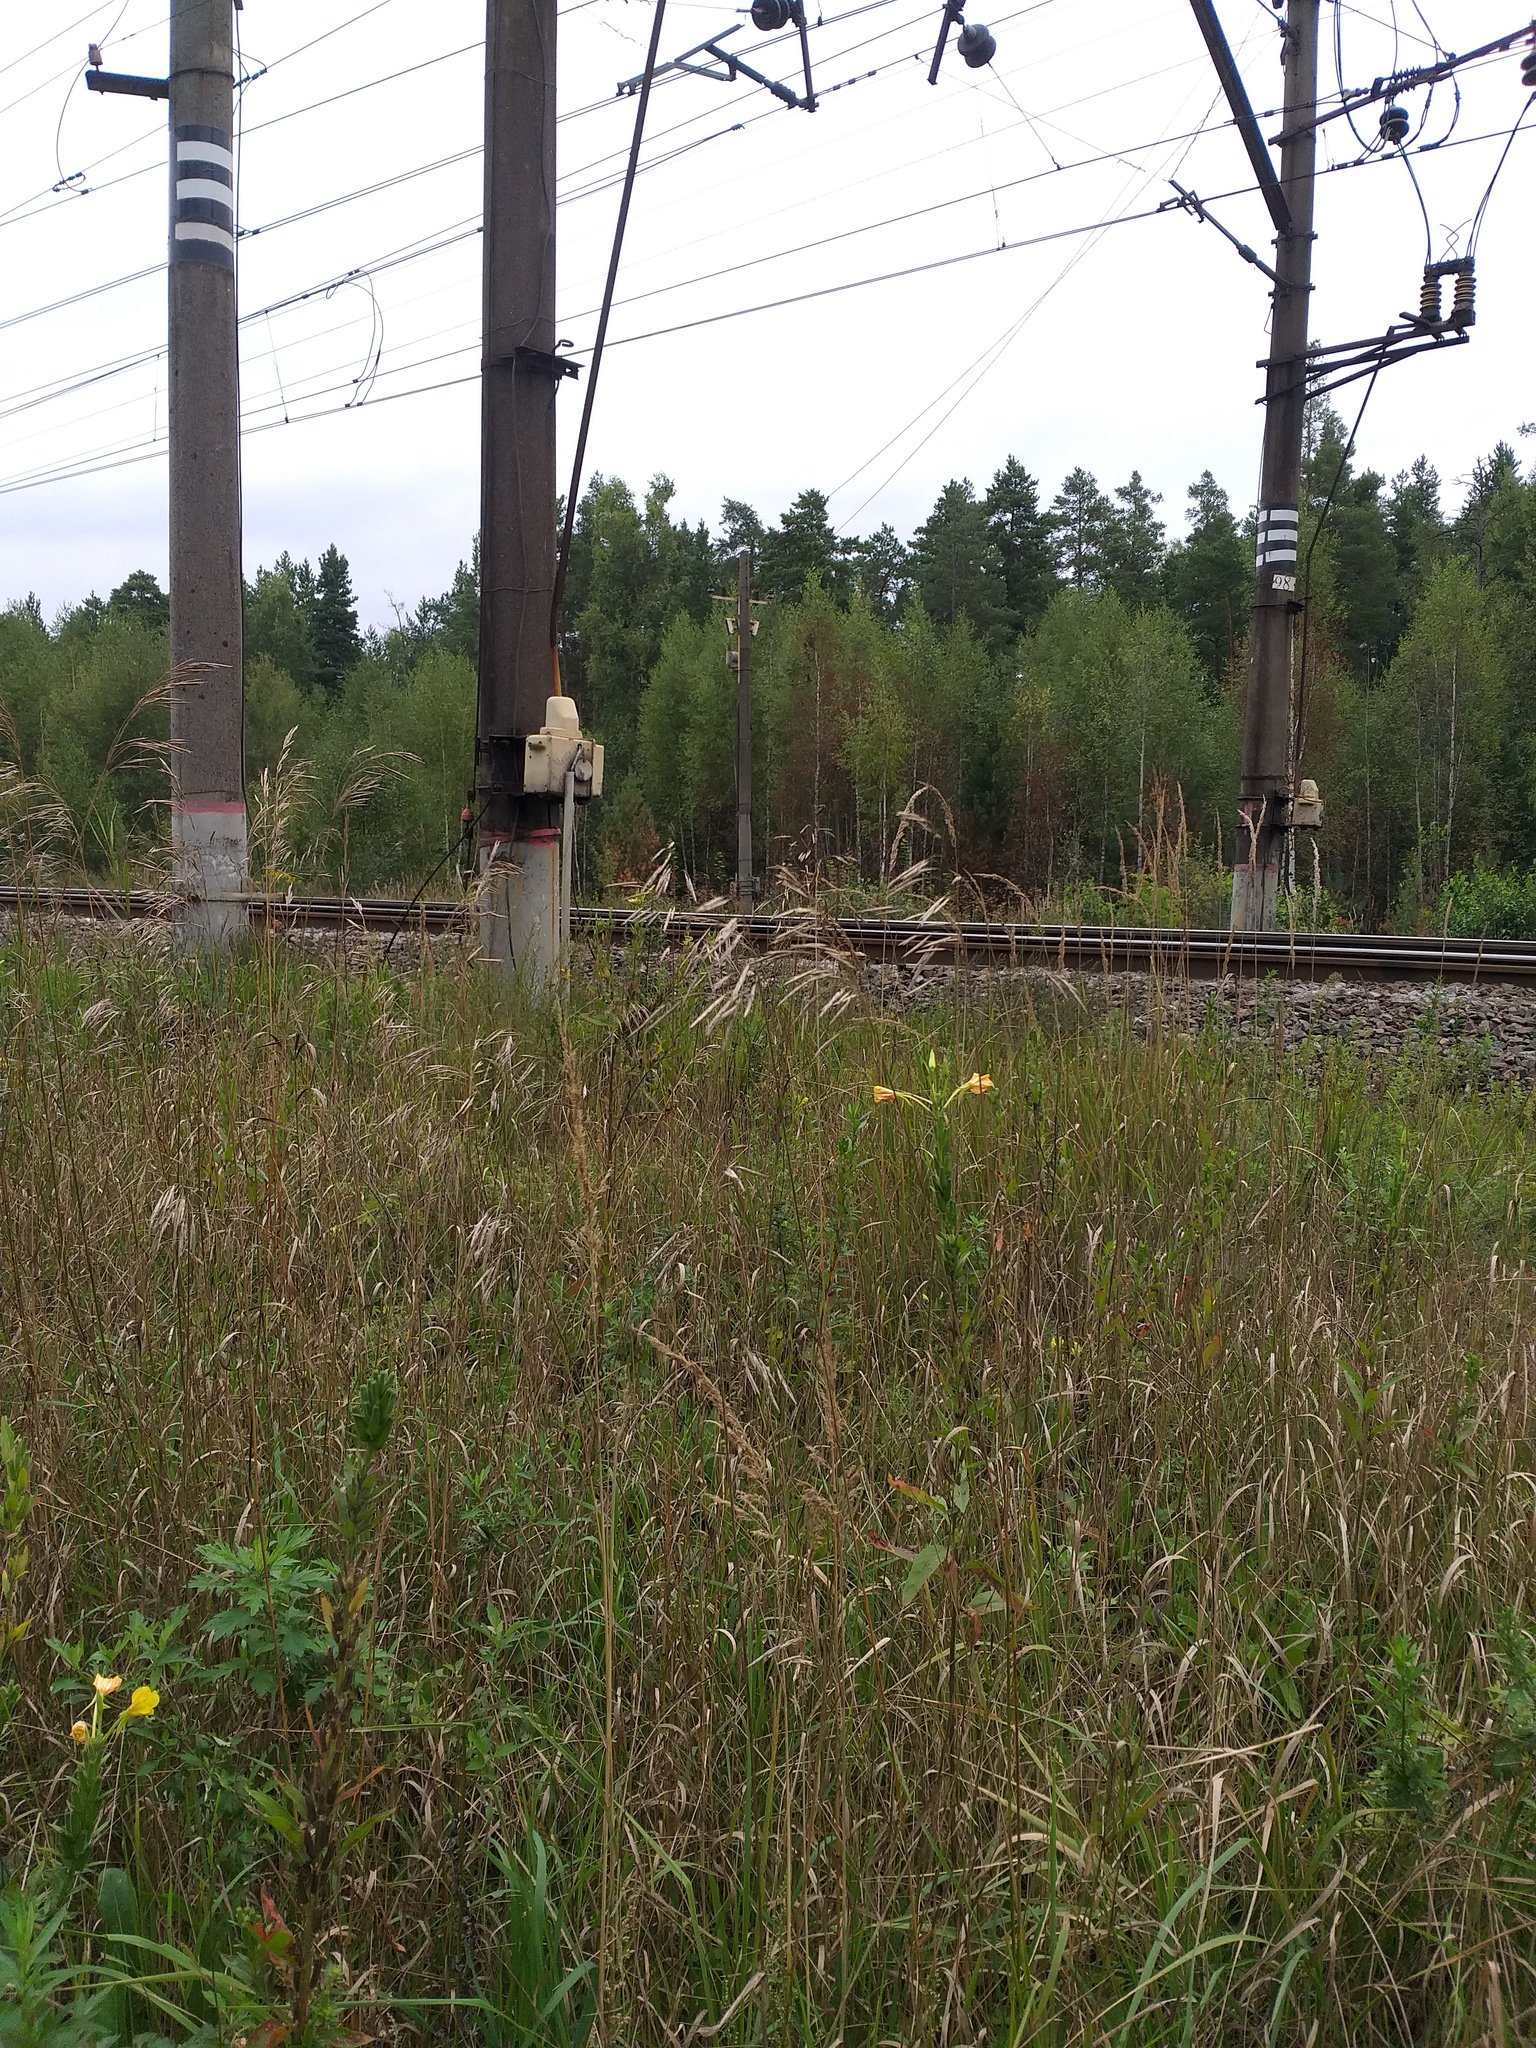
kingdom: Plantae
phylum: Tracheophyta
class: Magnoliopsida
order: Myrtales
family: Onagraceae
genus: Oenothera
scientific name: Oenothera biennis
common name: Common evening-primrose
